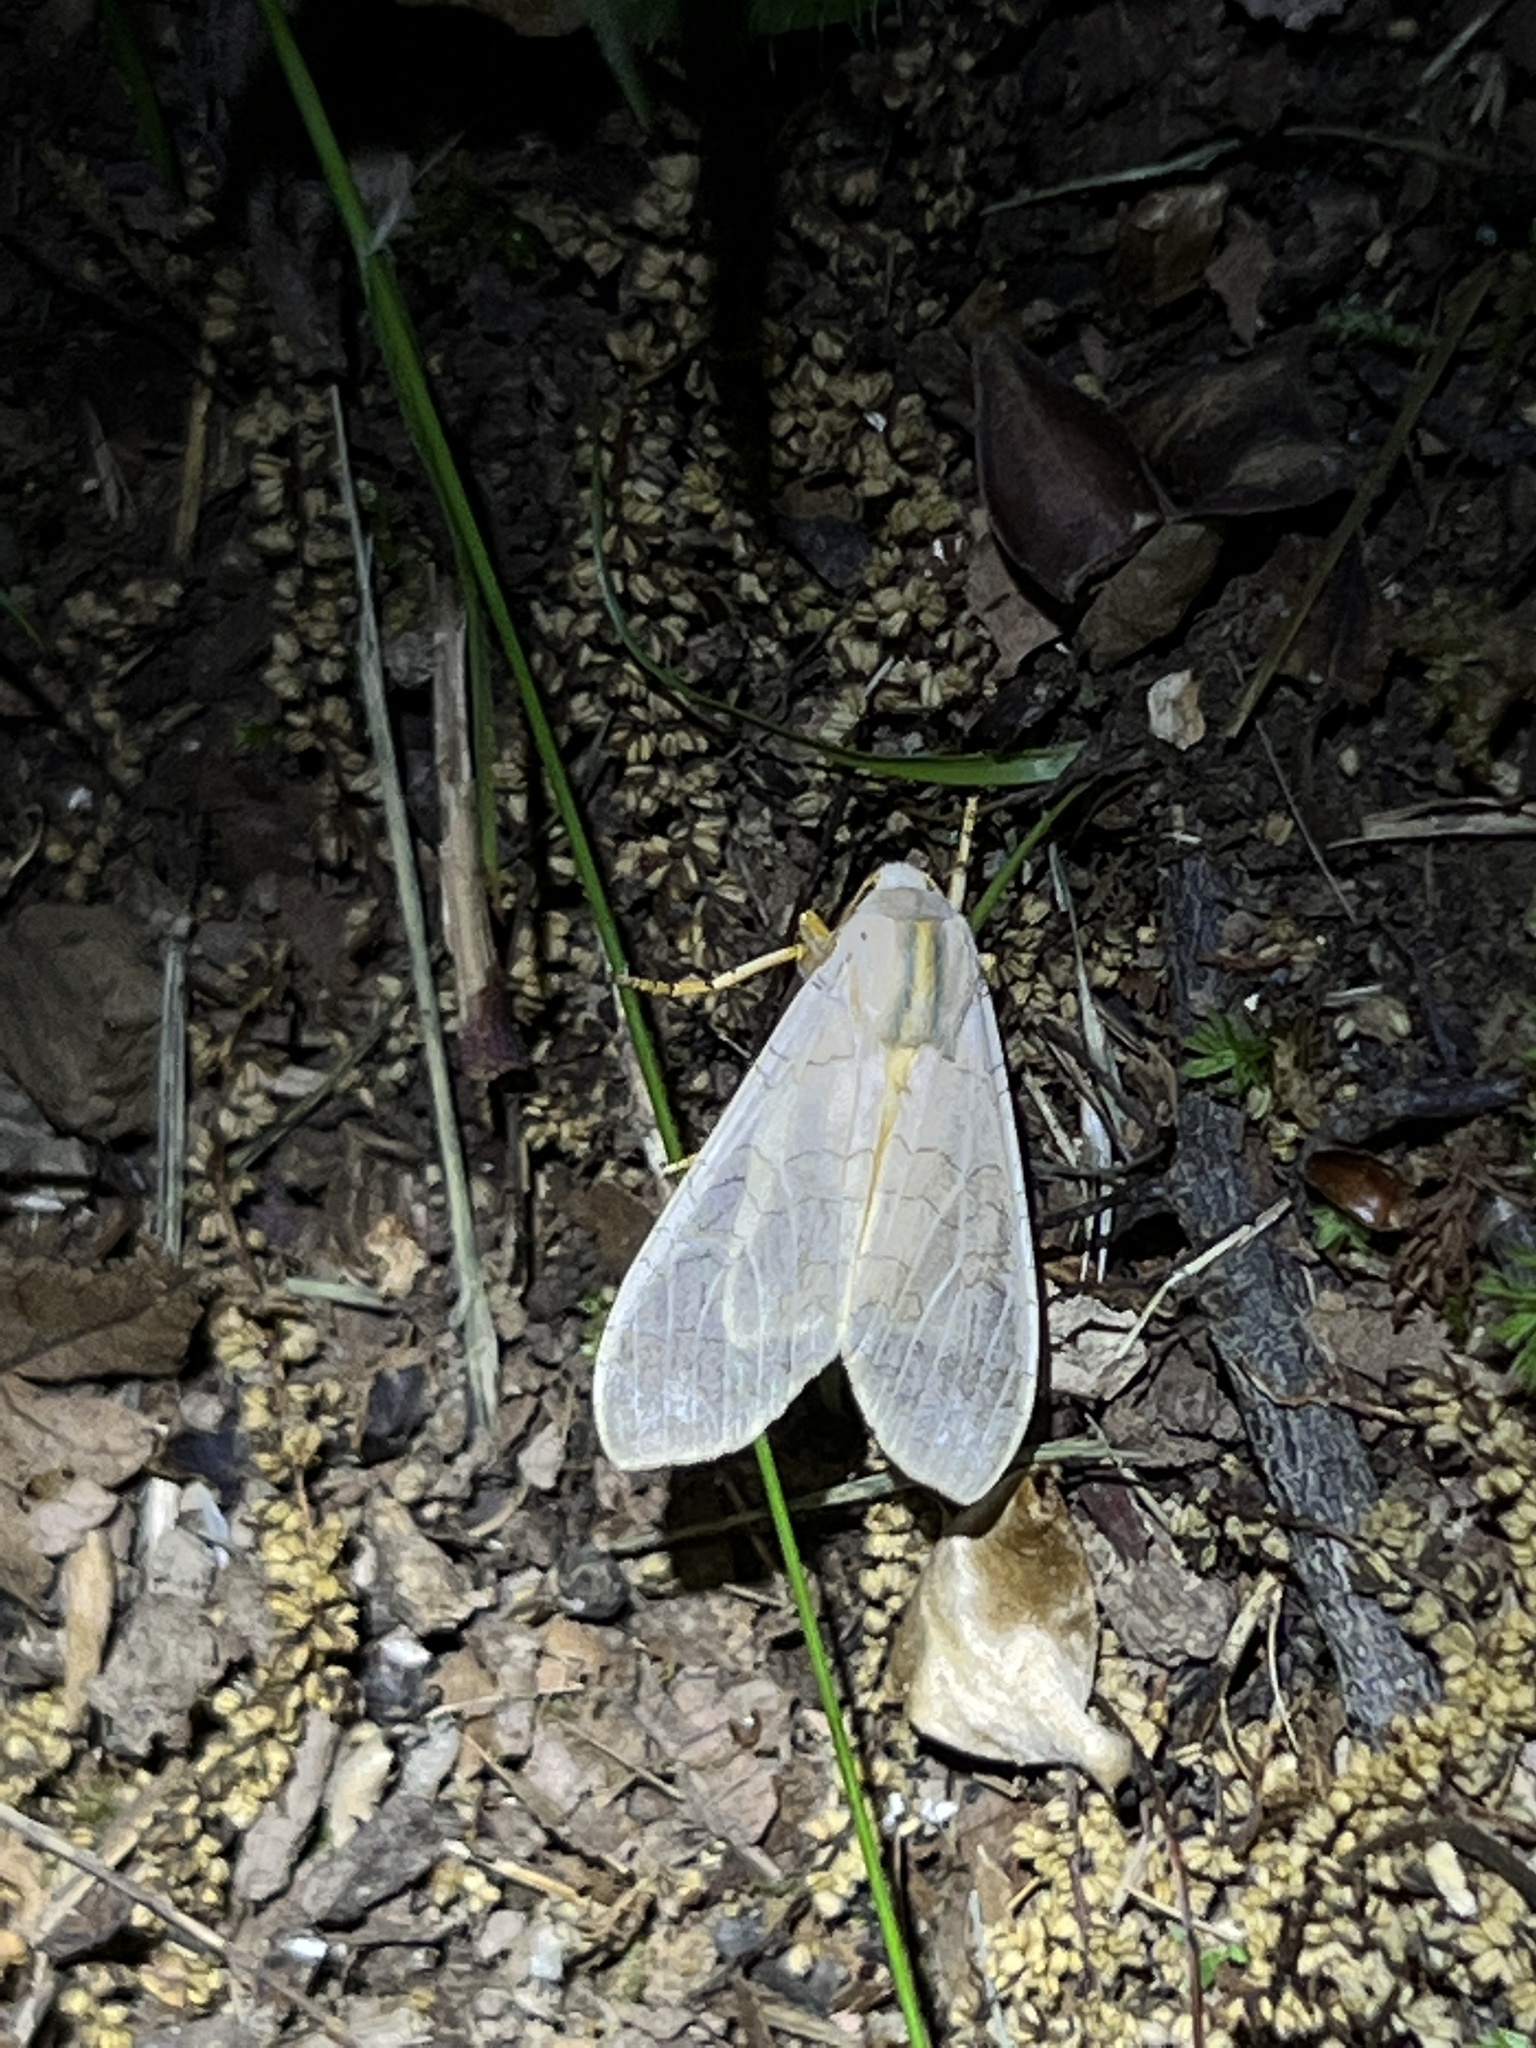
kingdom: Animalia
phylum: Arthropoda
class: Insecta
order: Lepidoptera
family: Erebidae
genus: Halysidota
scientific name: Halysidota
